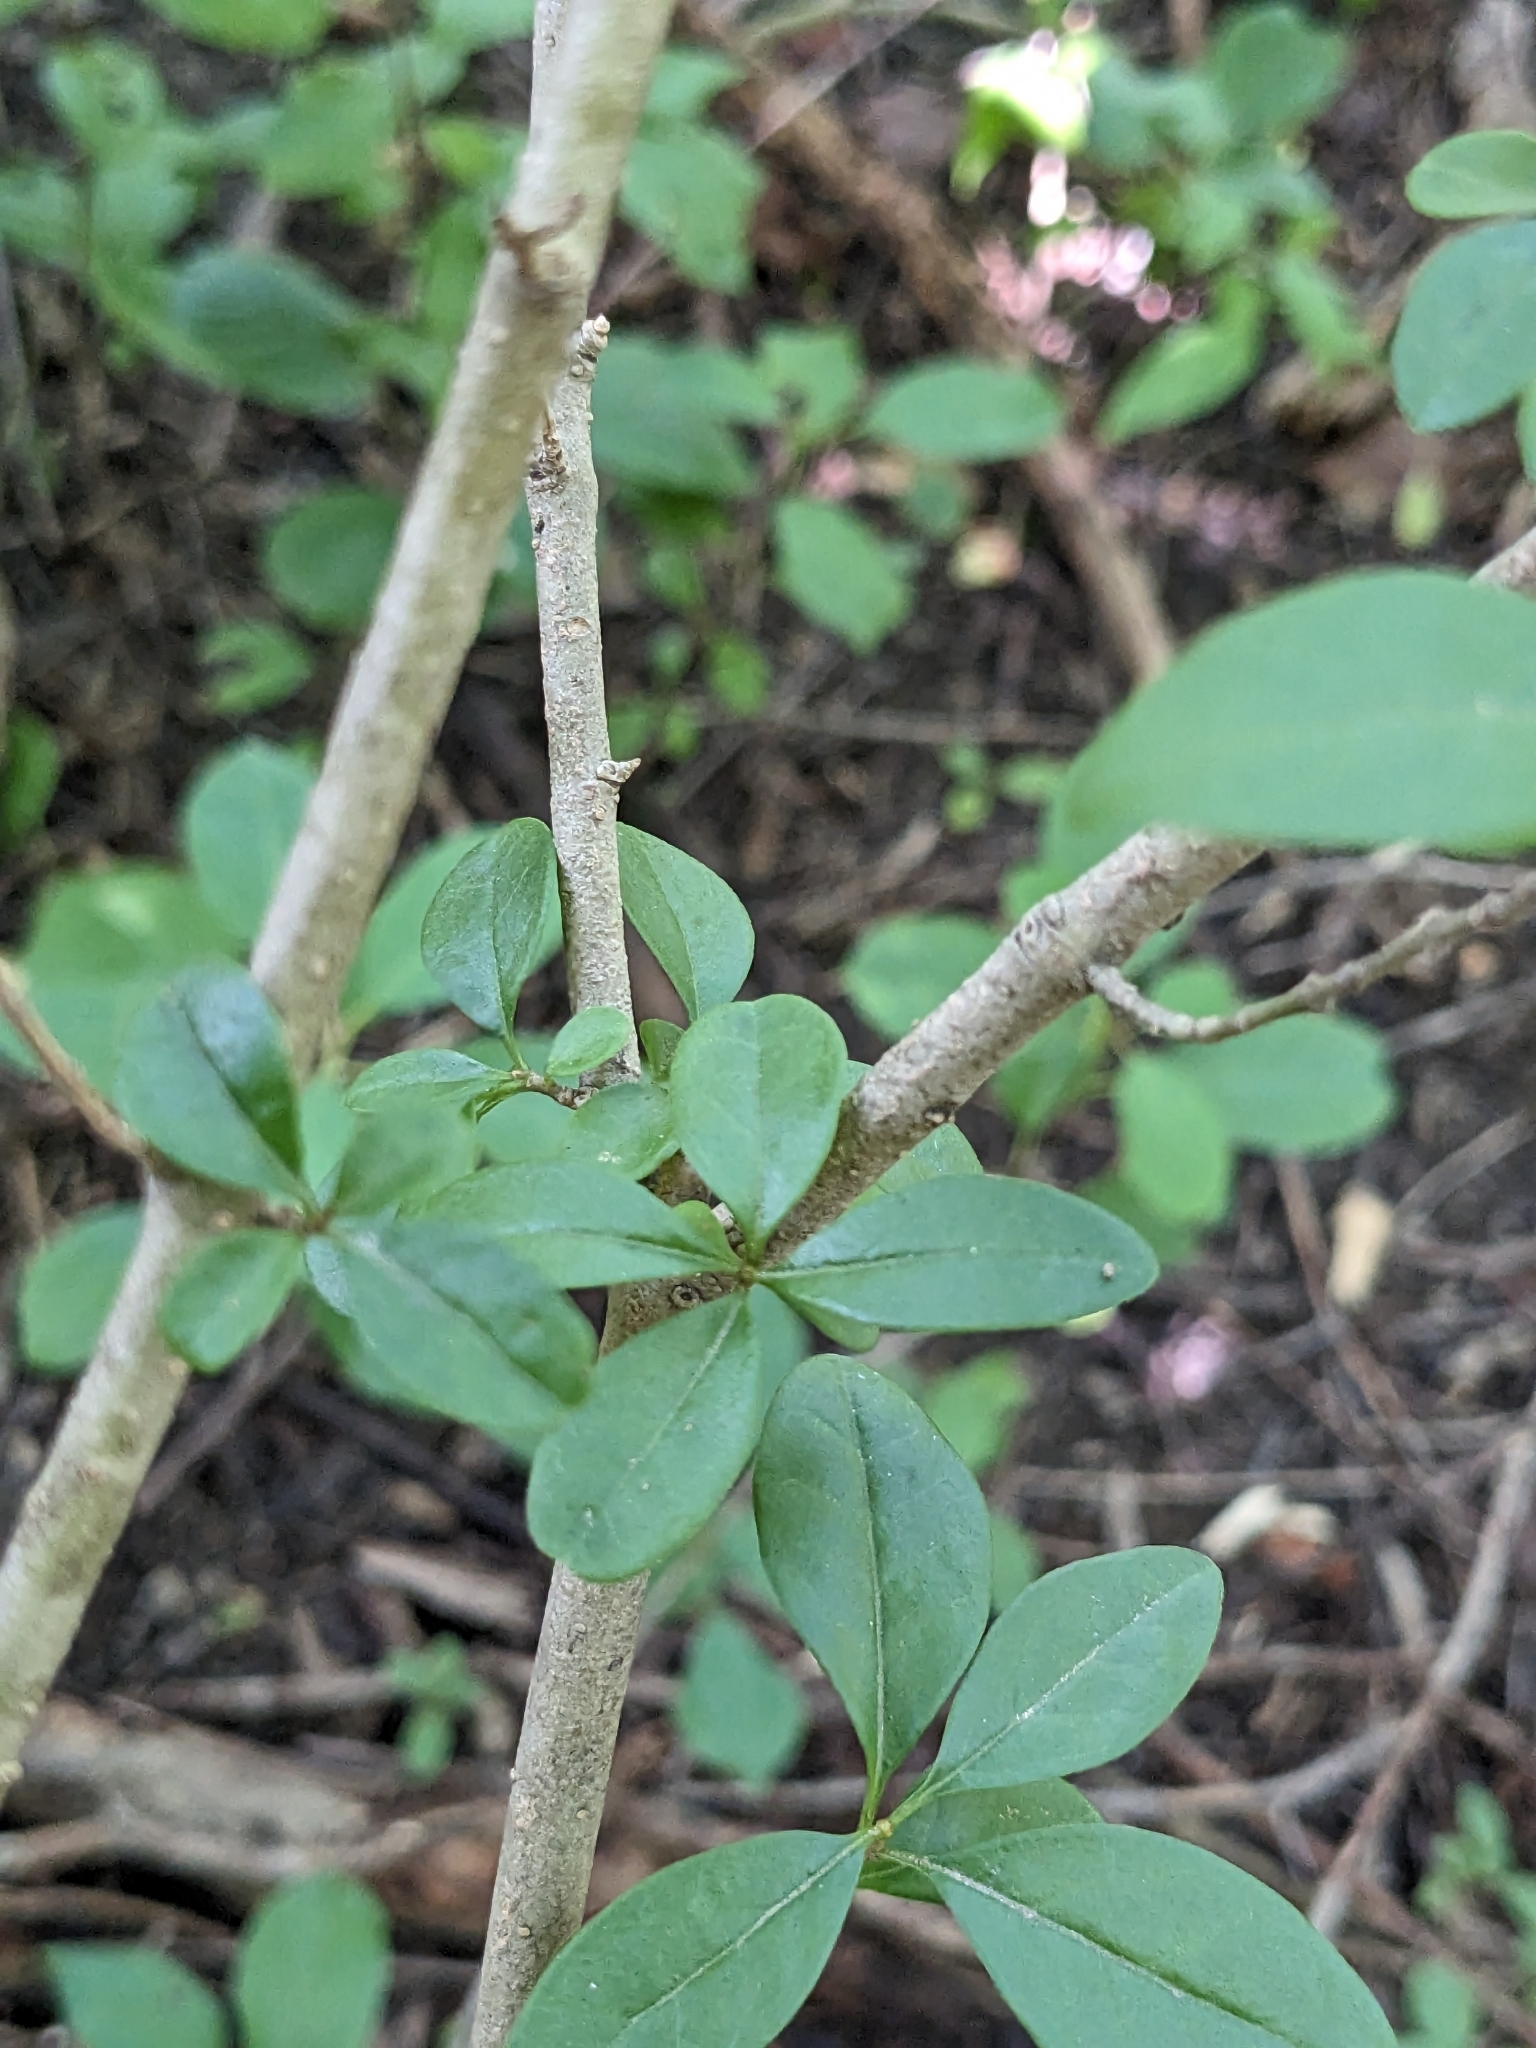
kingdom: Plantae
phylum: Tracheophyta
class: Magnoliopsida
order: Lamiales
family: Oleaceae
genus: Ligustrum
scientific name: Ligustrum obtusifolium
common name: Border privet
